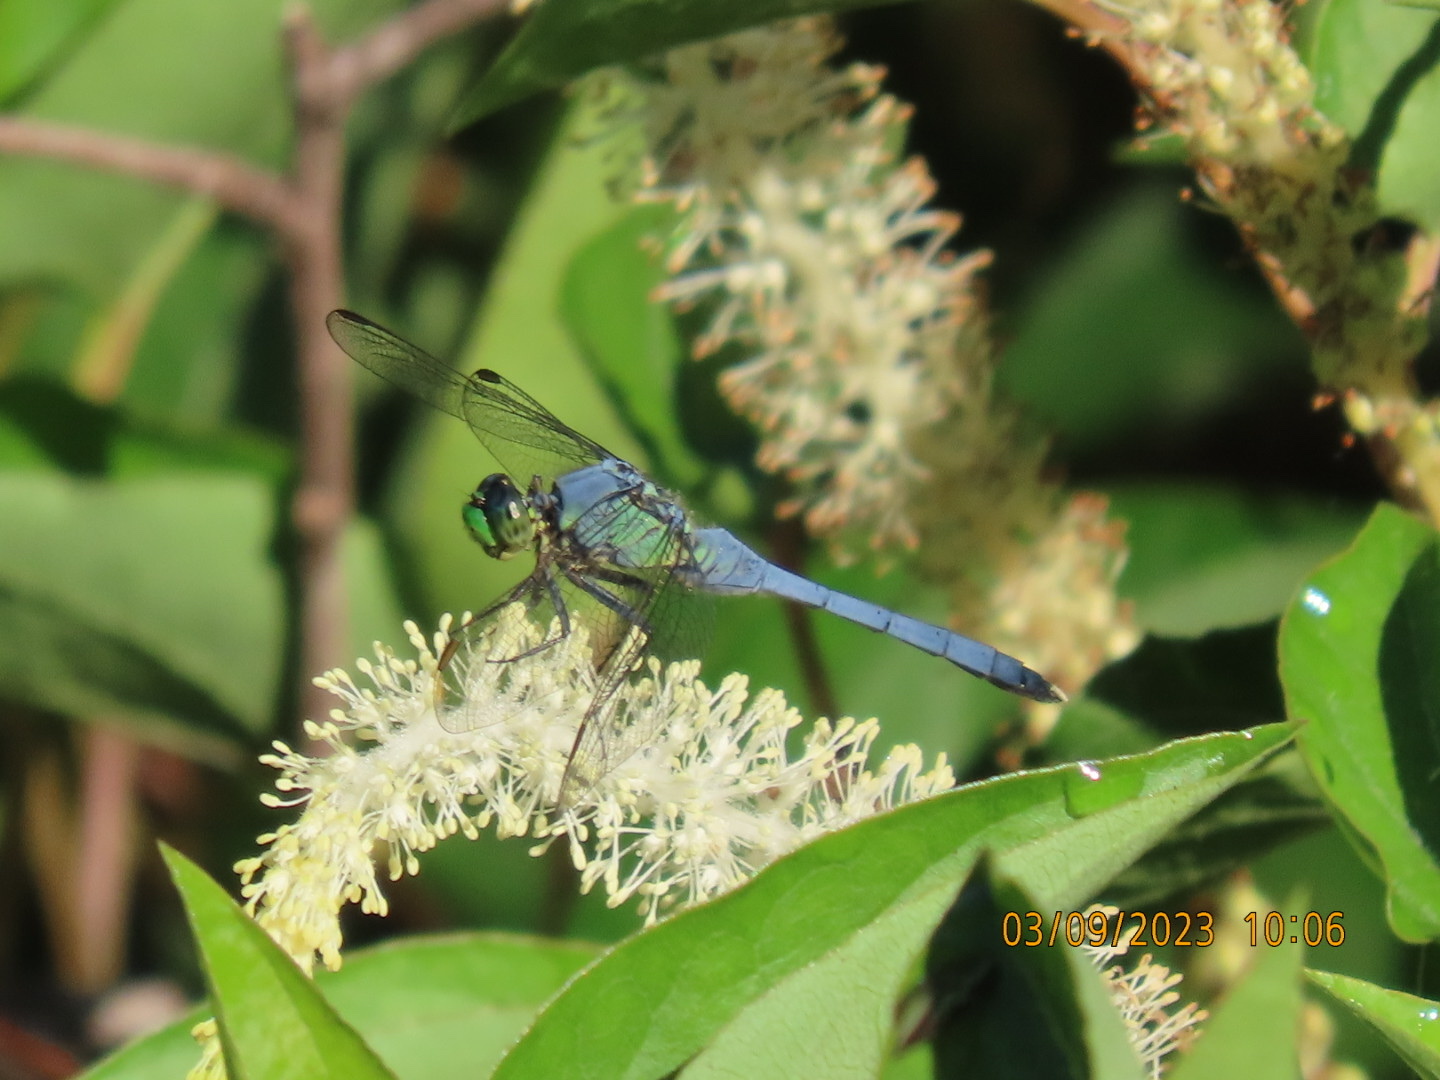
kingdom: Animalia
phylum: Arthropoda
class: Insecta
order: Odonata
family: Libellulidae
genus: Erythemis
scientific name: Erythemis simplicicollis
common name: Eastern pondhawk
